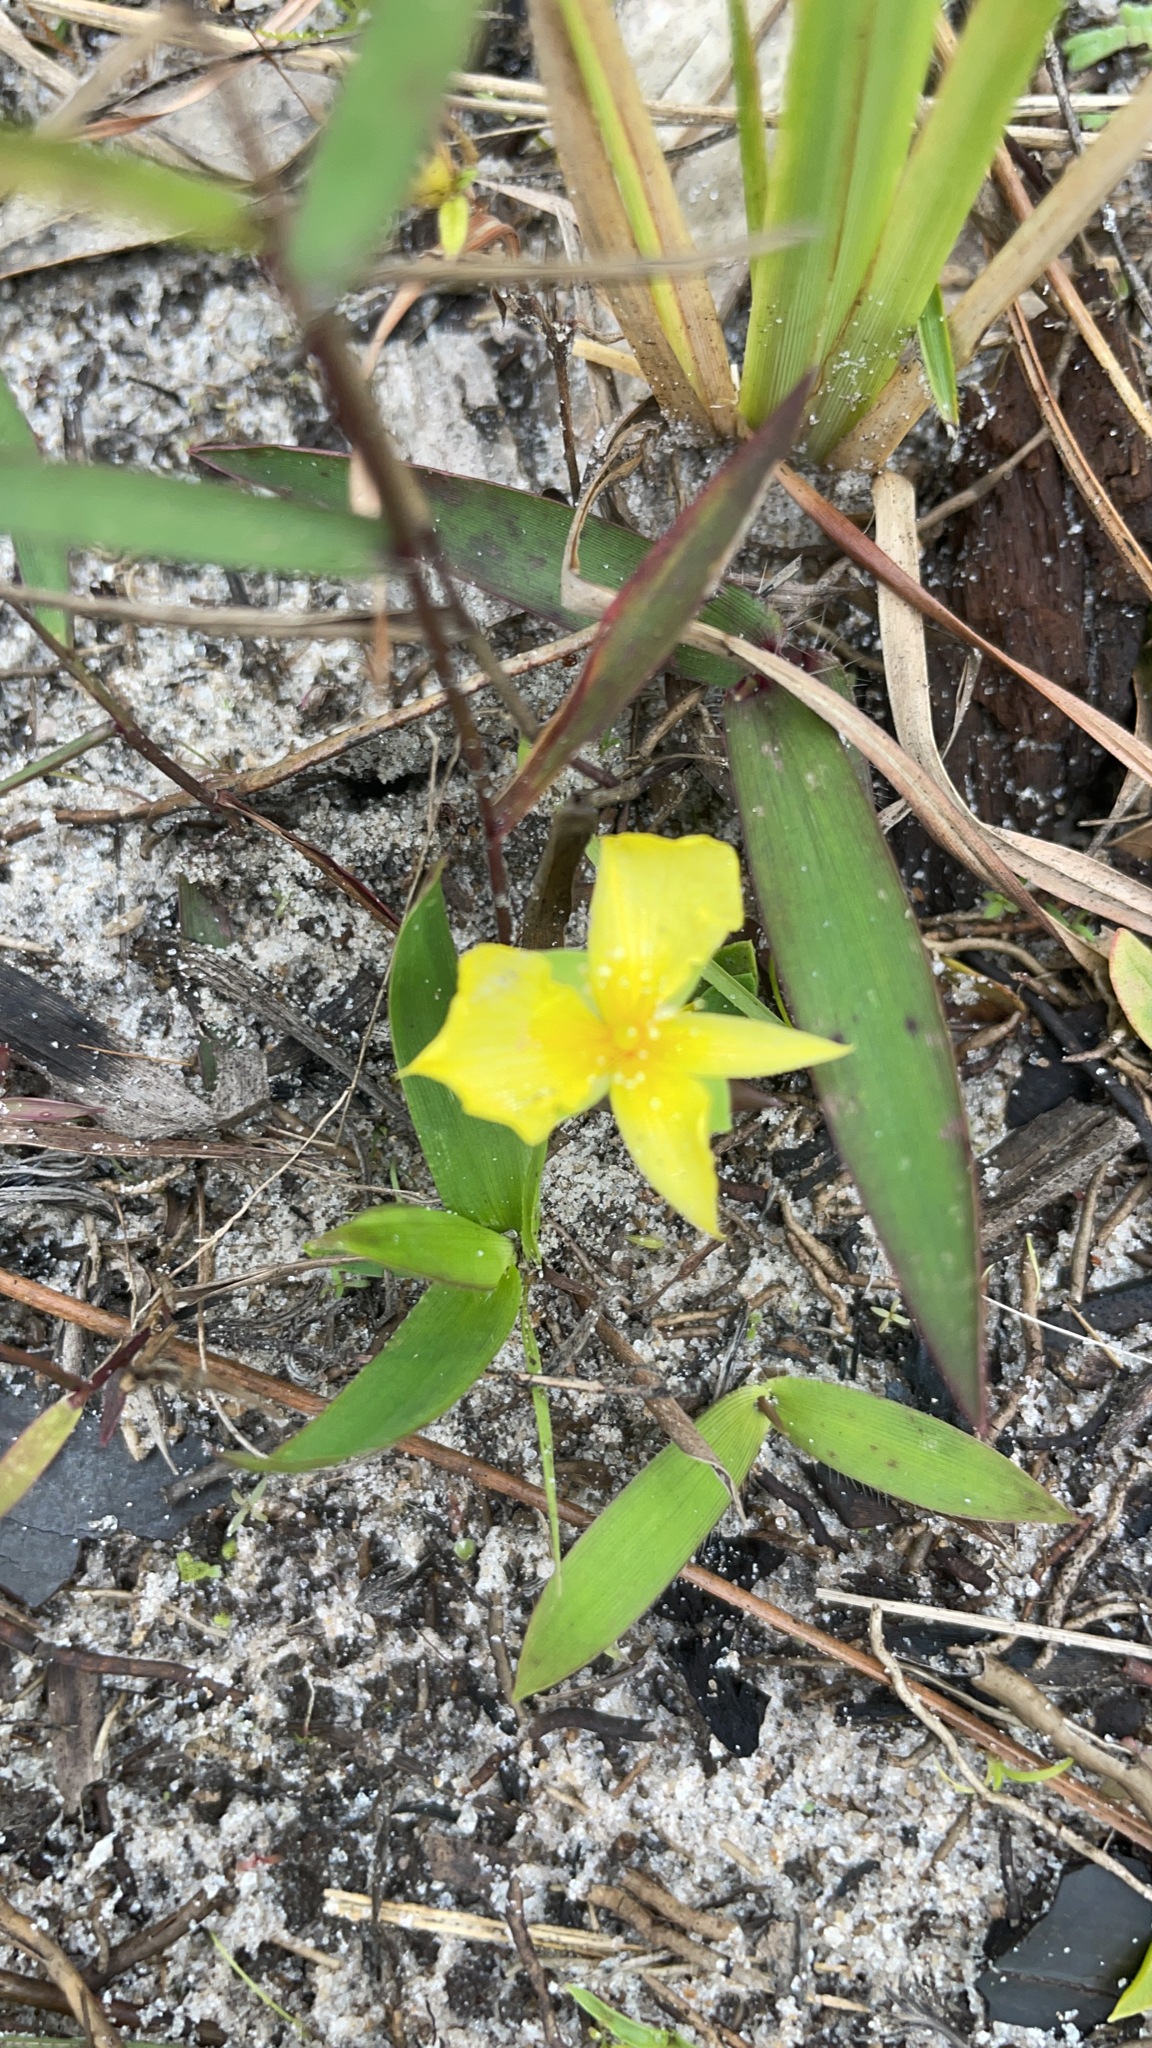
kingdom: Plantae
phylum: Tracheophyta
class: Magnoliopsida
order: Malpighiales
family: Hypericaceae
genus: Hypericum
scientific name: Hypericum tetrapetalum
